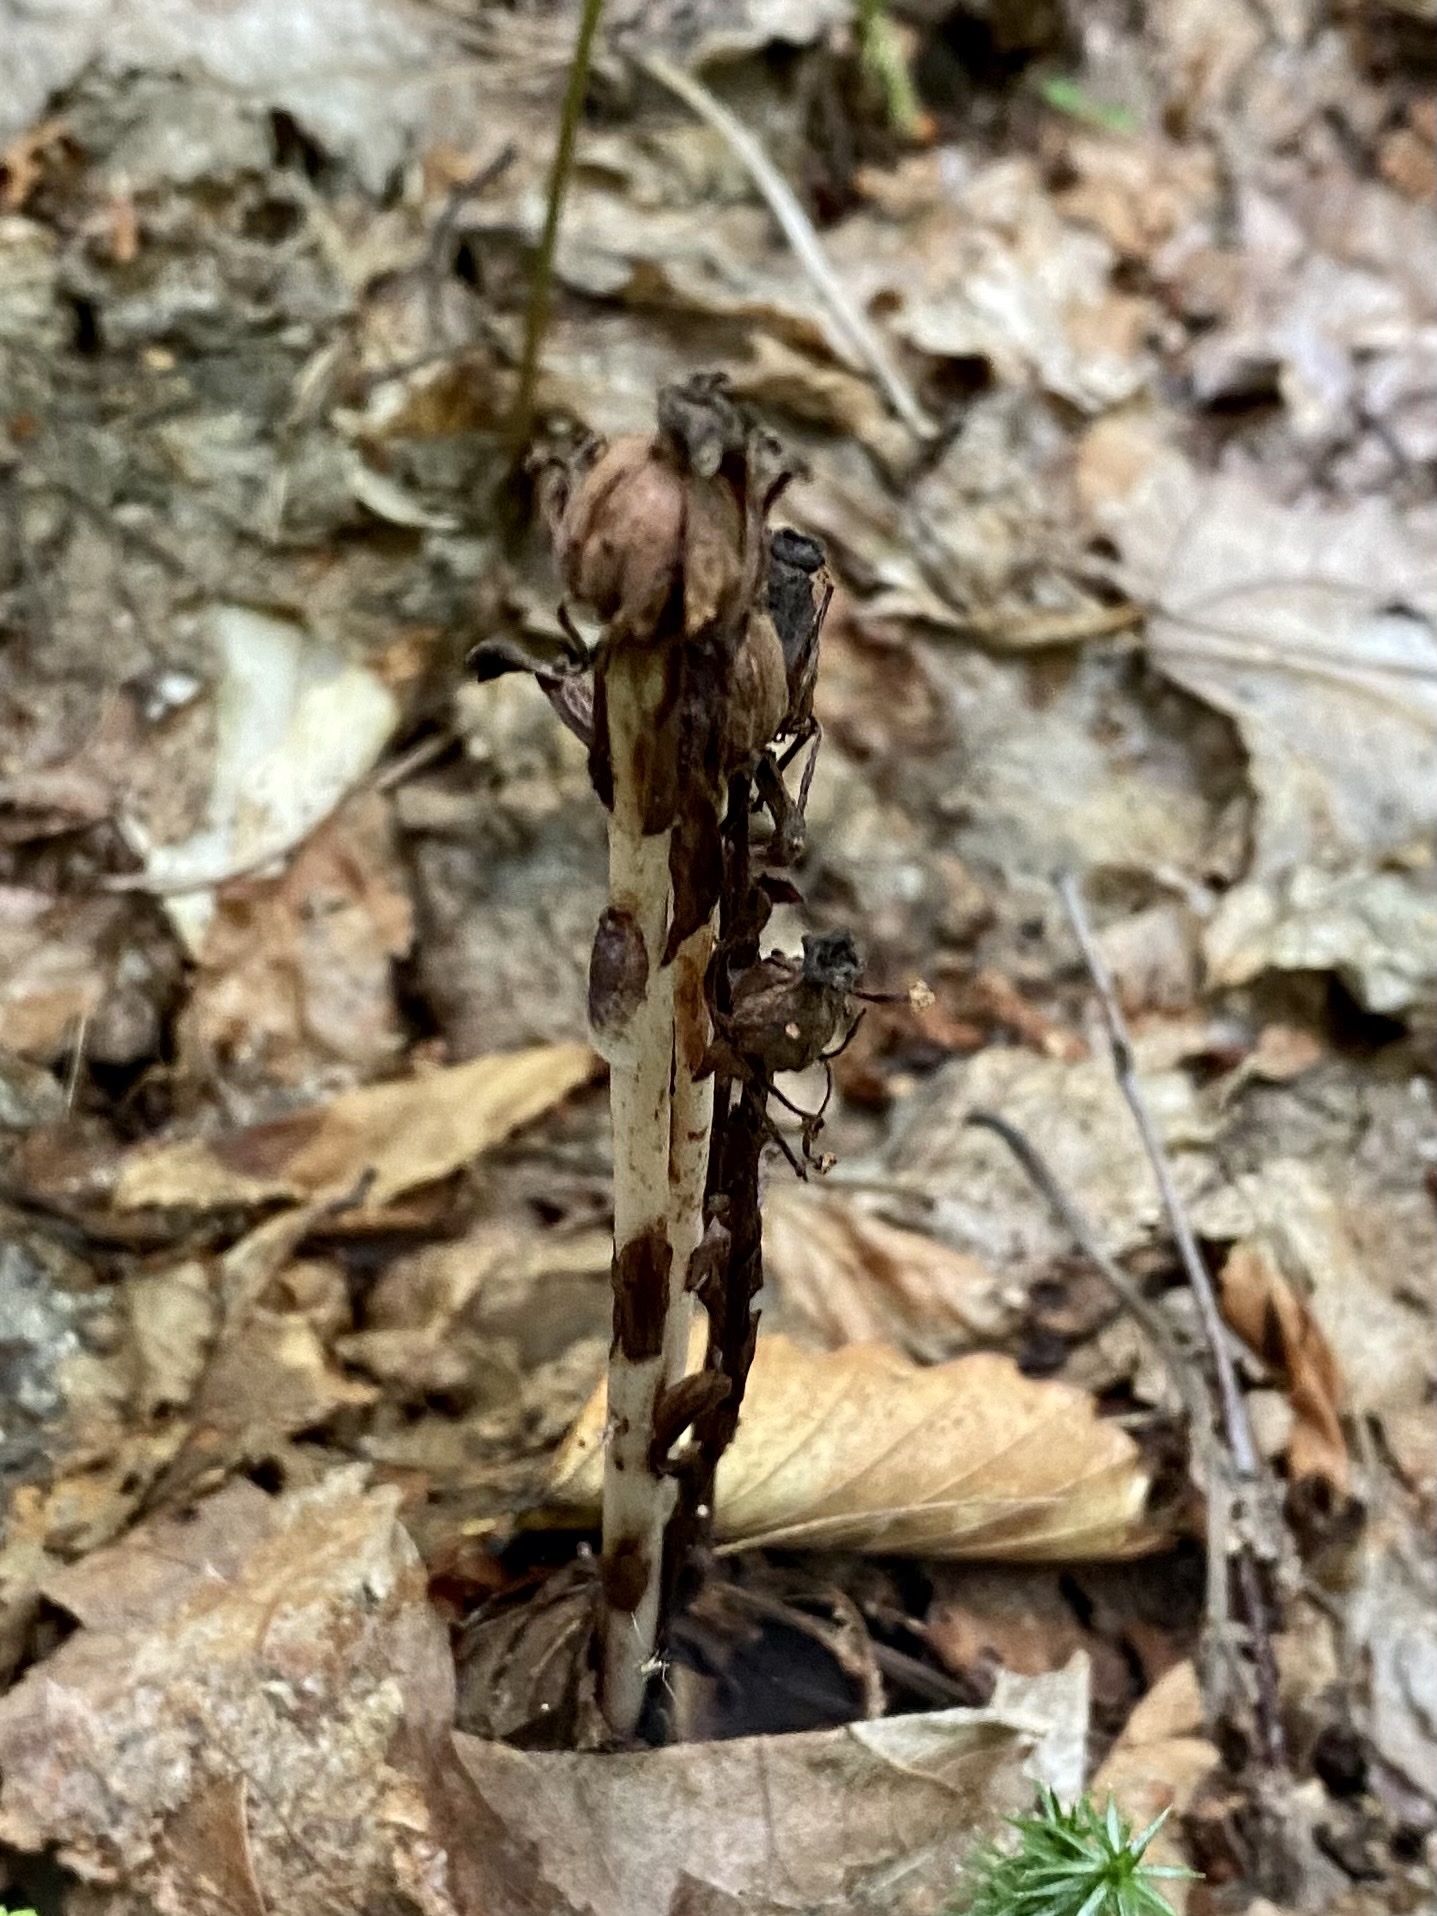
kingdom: Plantae
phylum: Tracheophyta
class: Magnoliopsida
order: Ericales
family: Ericaceae
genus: Monotropa
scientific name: Monotropa uniflora
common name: Convulsion root
